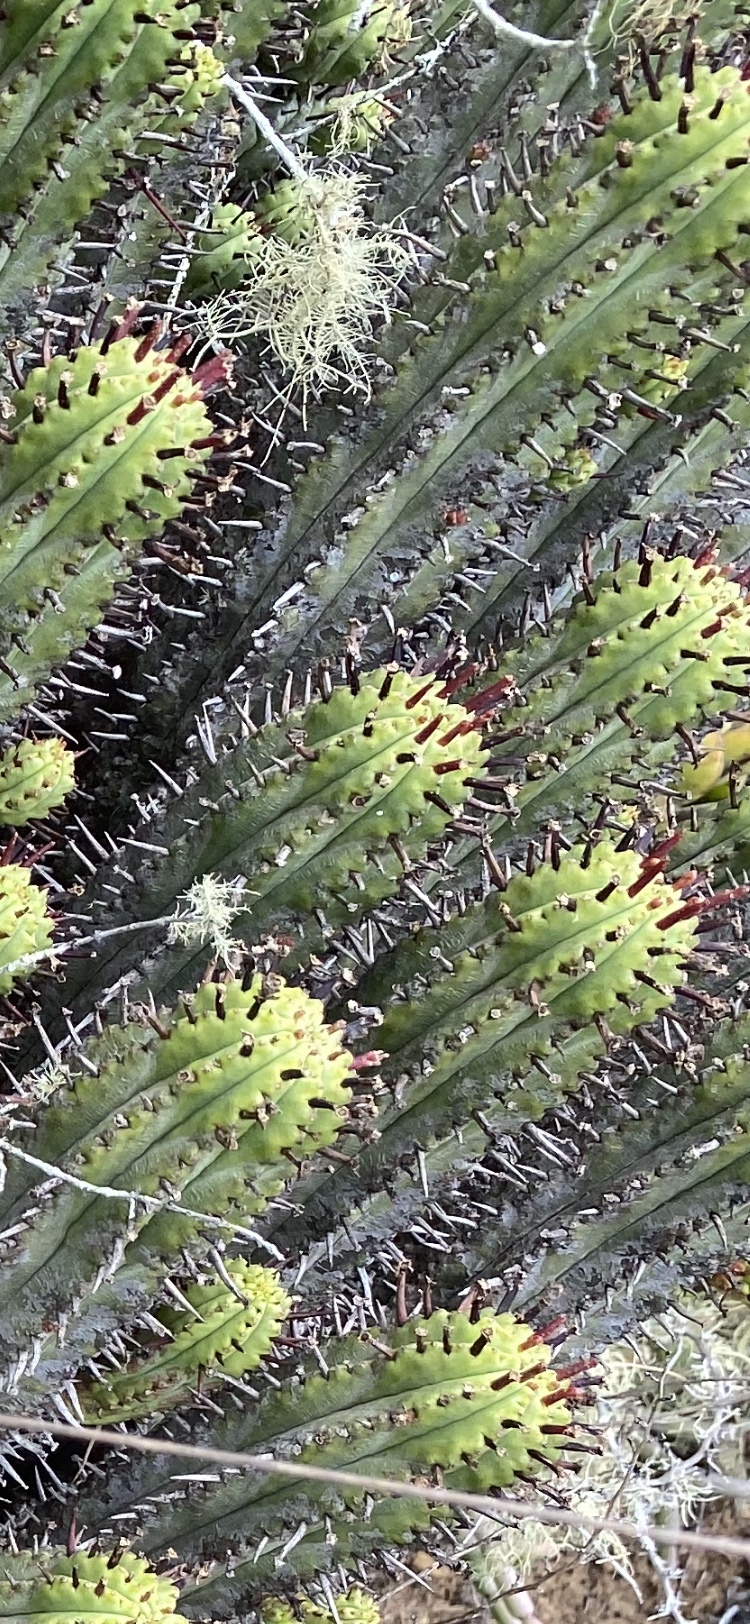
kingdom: Plantae
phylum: Tracheophyta
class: Magnoliopsida
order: Malpighiales
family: Euphorbiaceae
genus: Euphorbia
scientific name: Euphorbia heptagona
